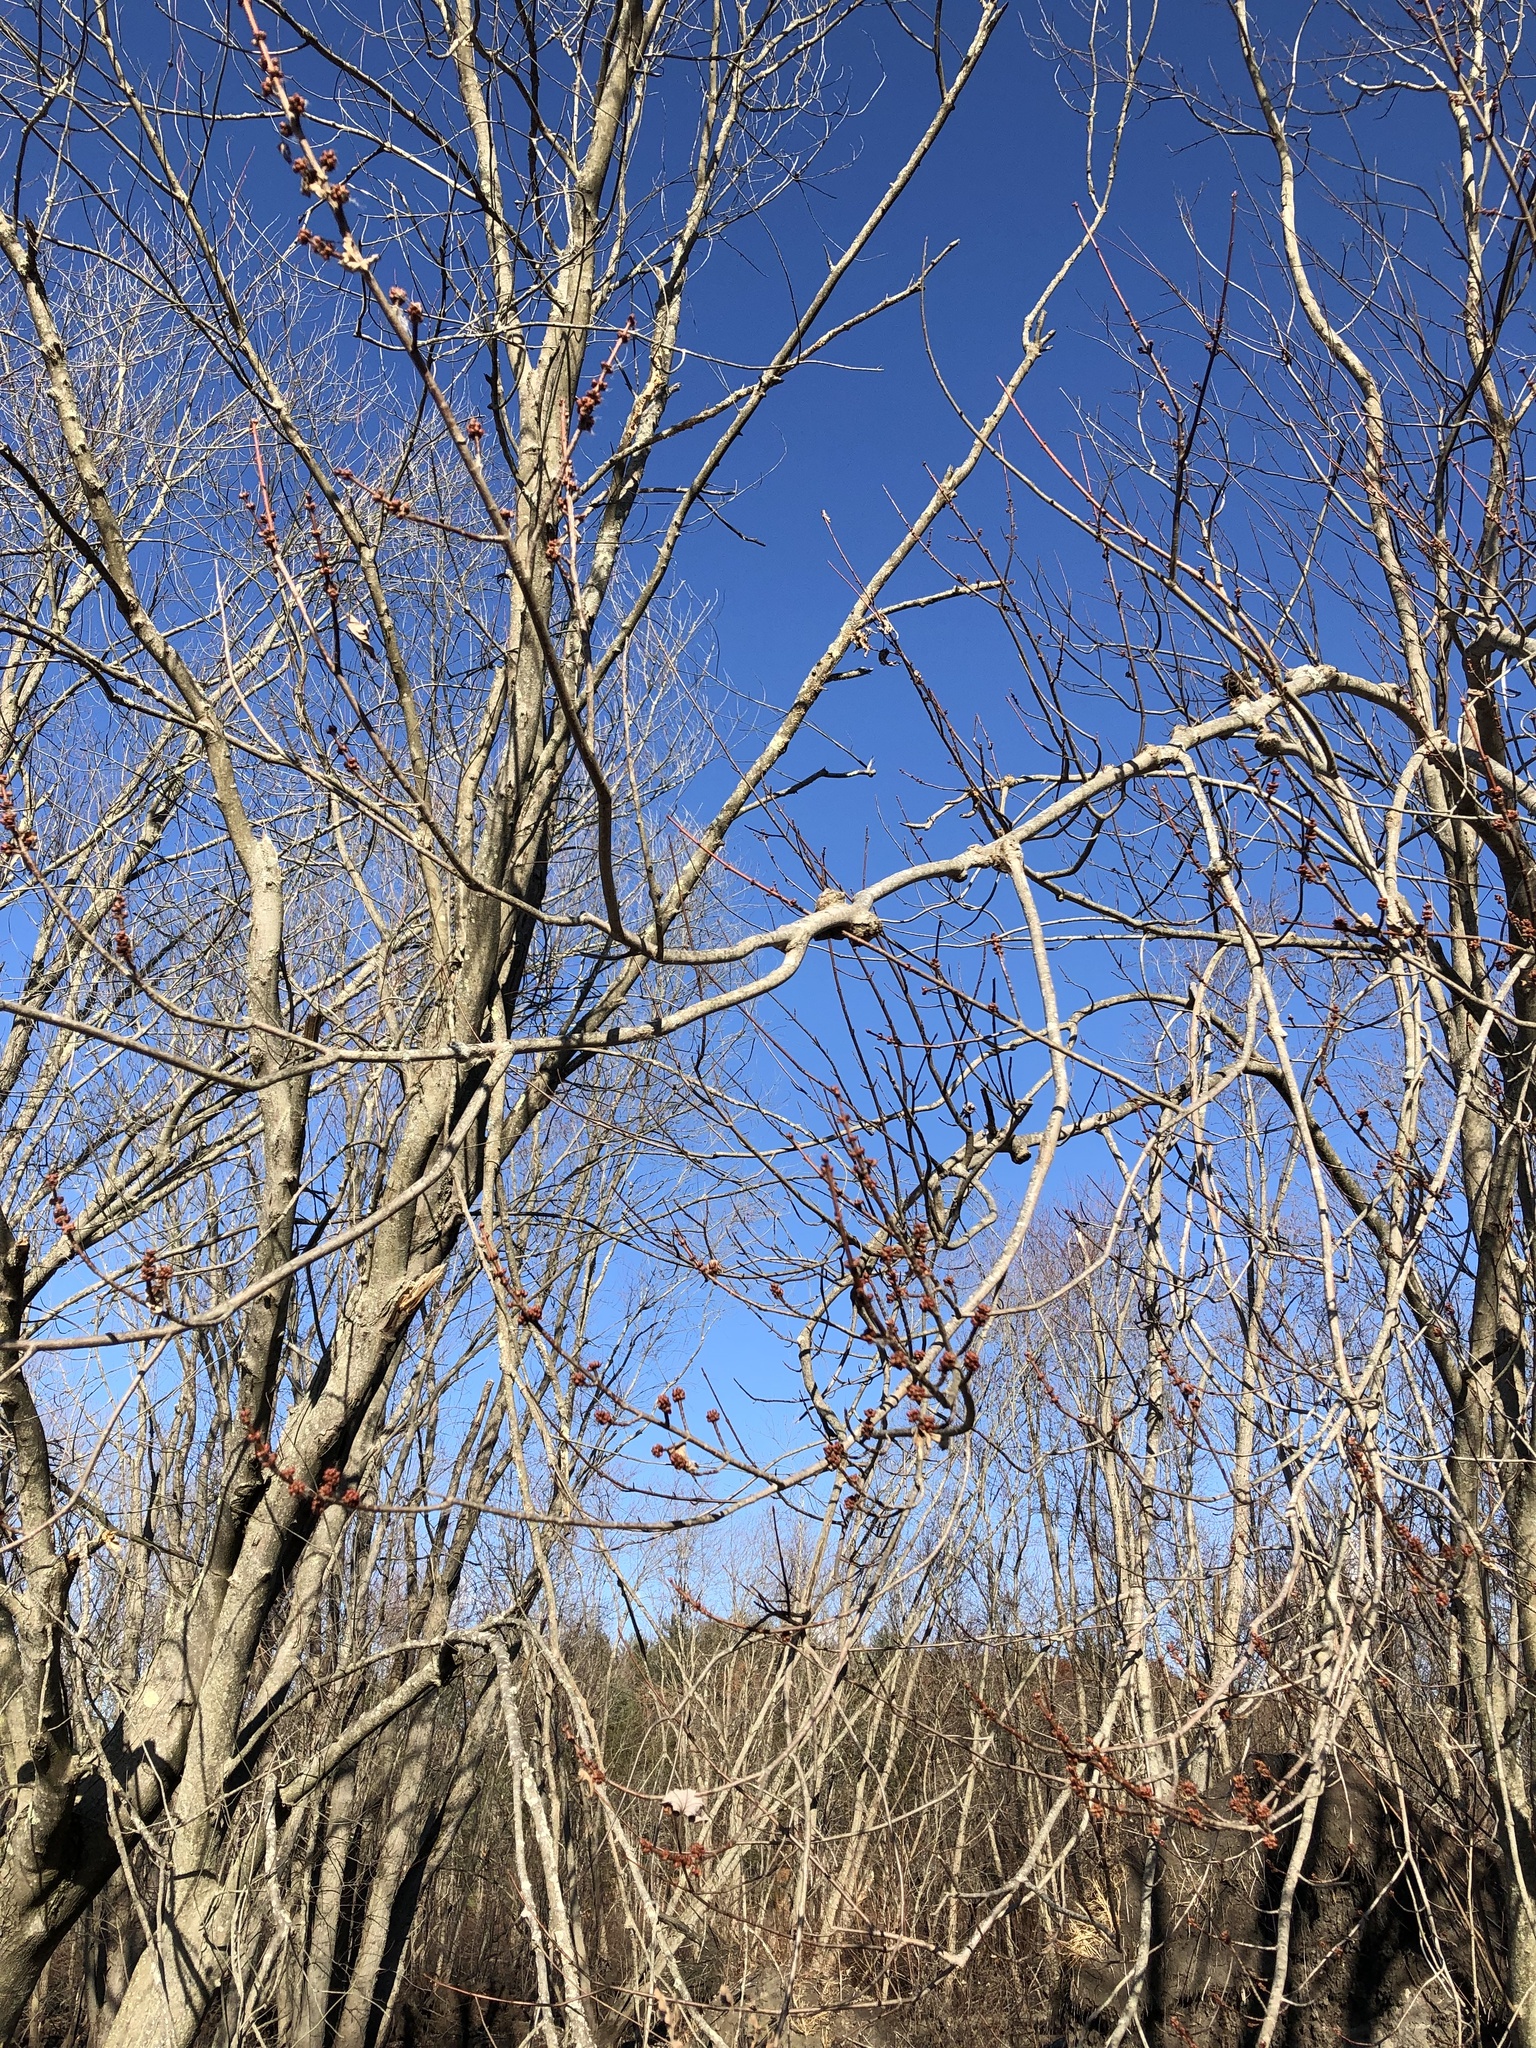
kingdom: Plantae
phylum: Tracheophyta
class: Magnoliopsida
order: Sapindales
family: Sapindaceae
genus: Acer
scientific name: Acer rubrum
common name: Red maple
